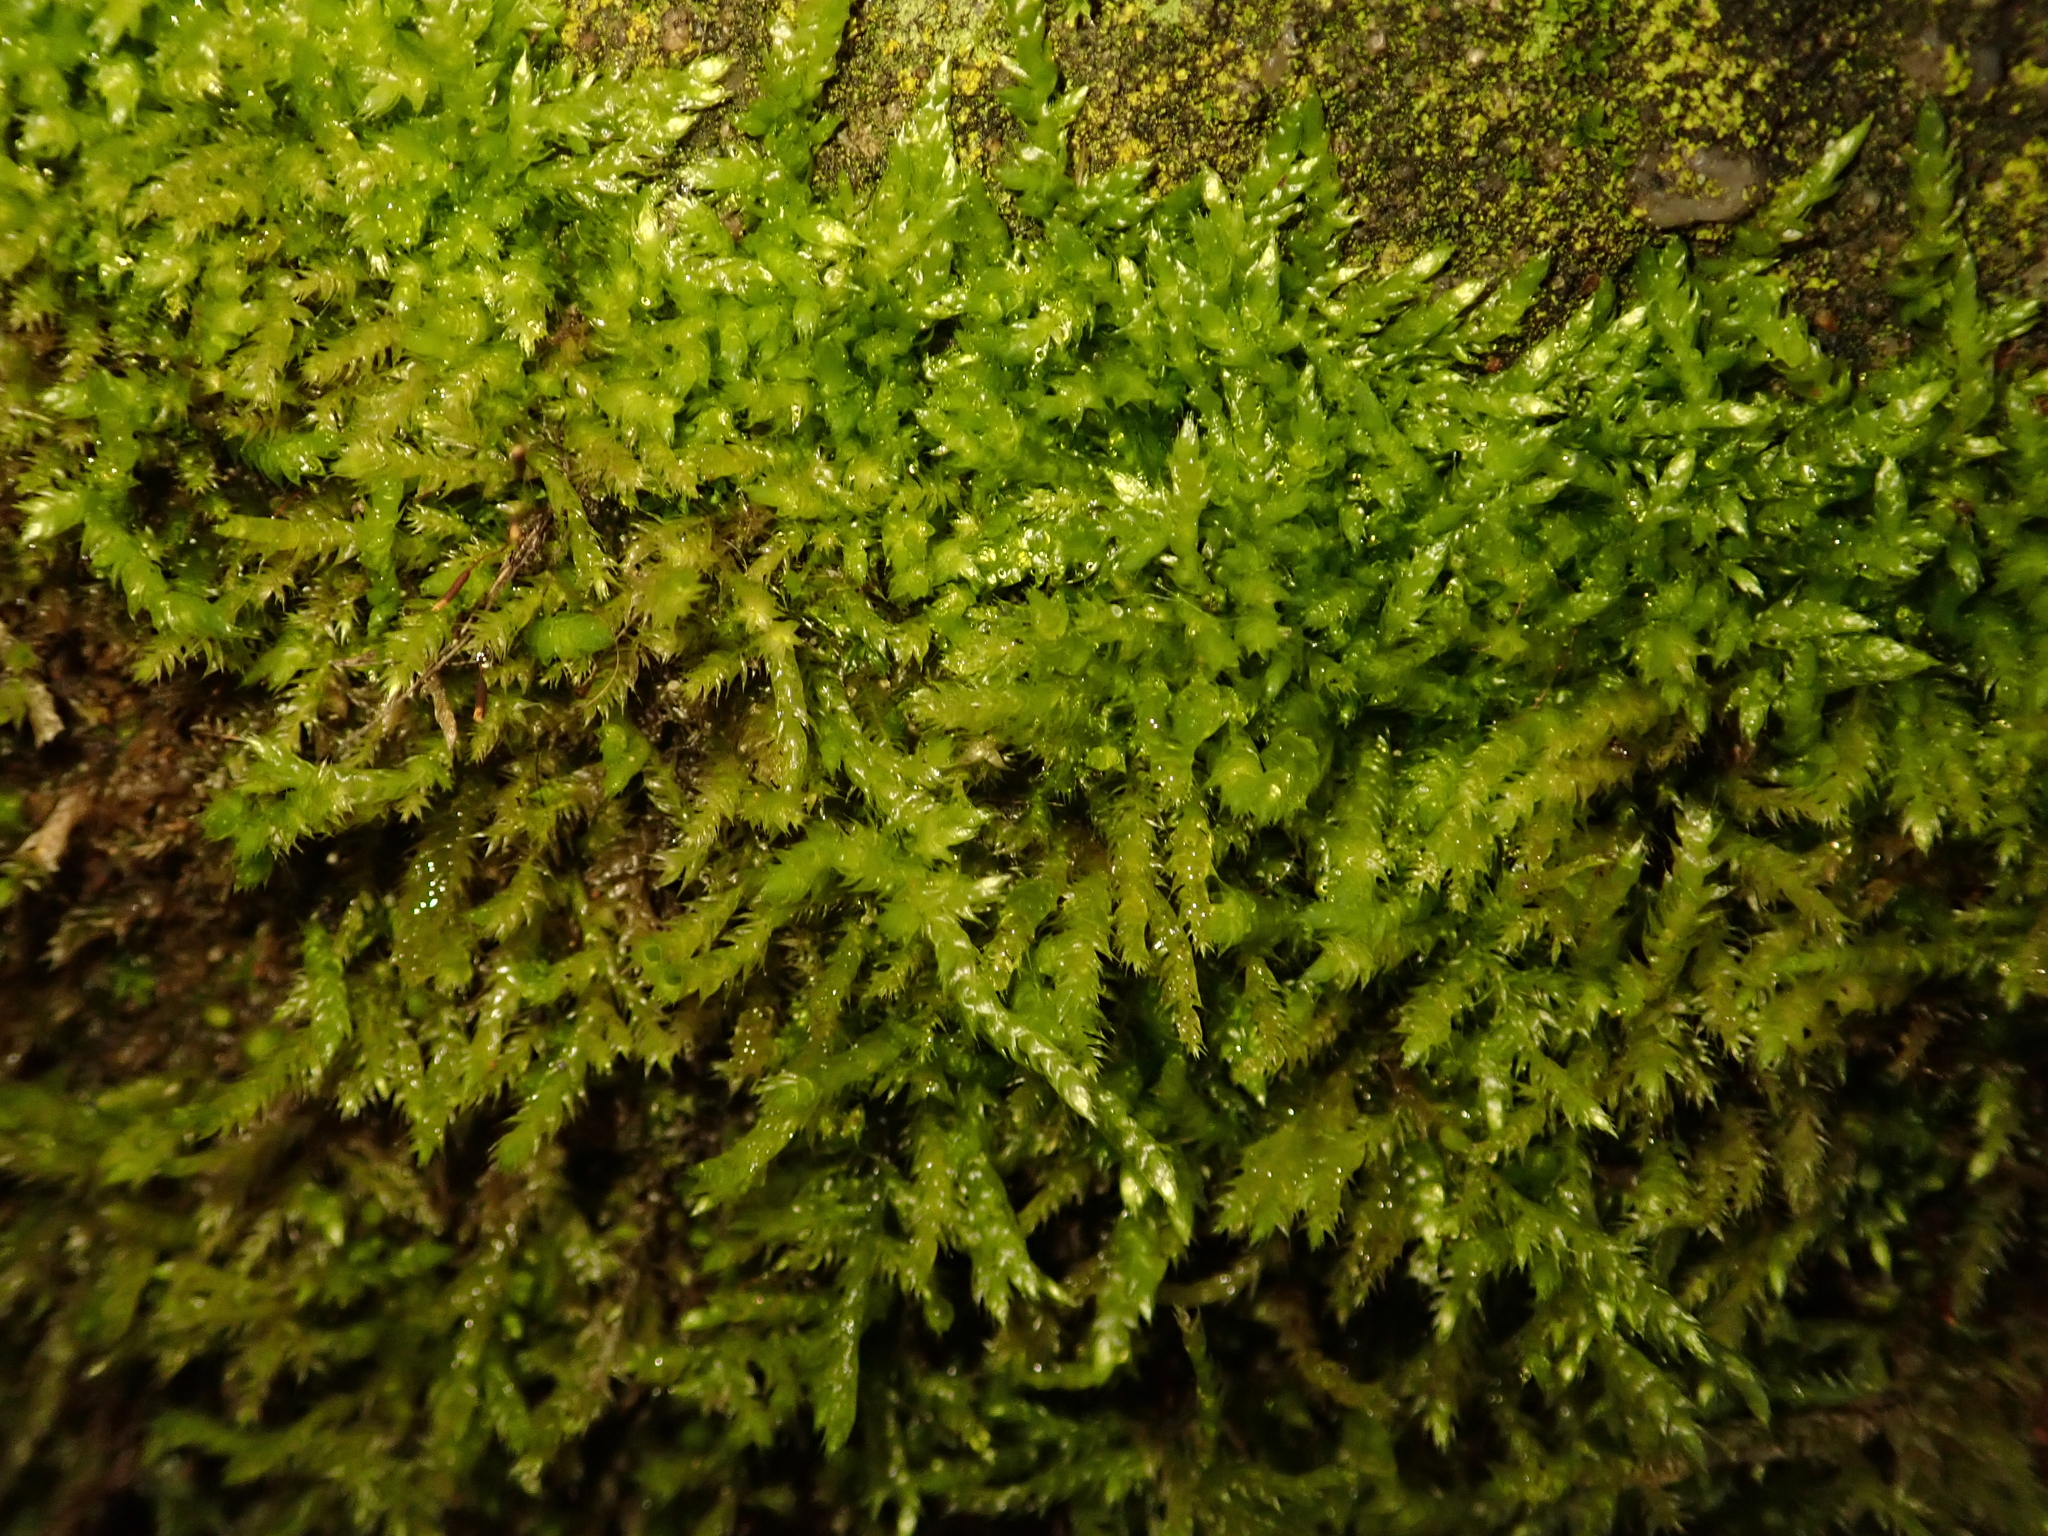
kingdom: Plantae
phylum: Bryophyta
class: Bryopsida
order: Hypnales
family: Brachytheciaceae
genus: Brachythecium
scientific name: Brachythecium rutabulum
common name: Rough-stalked feather-moss
